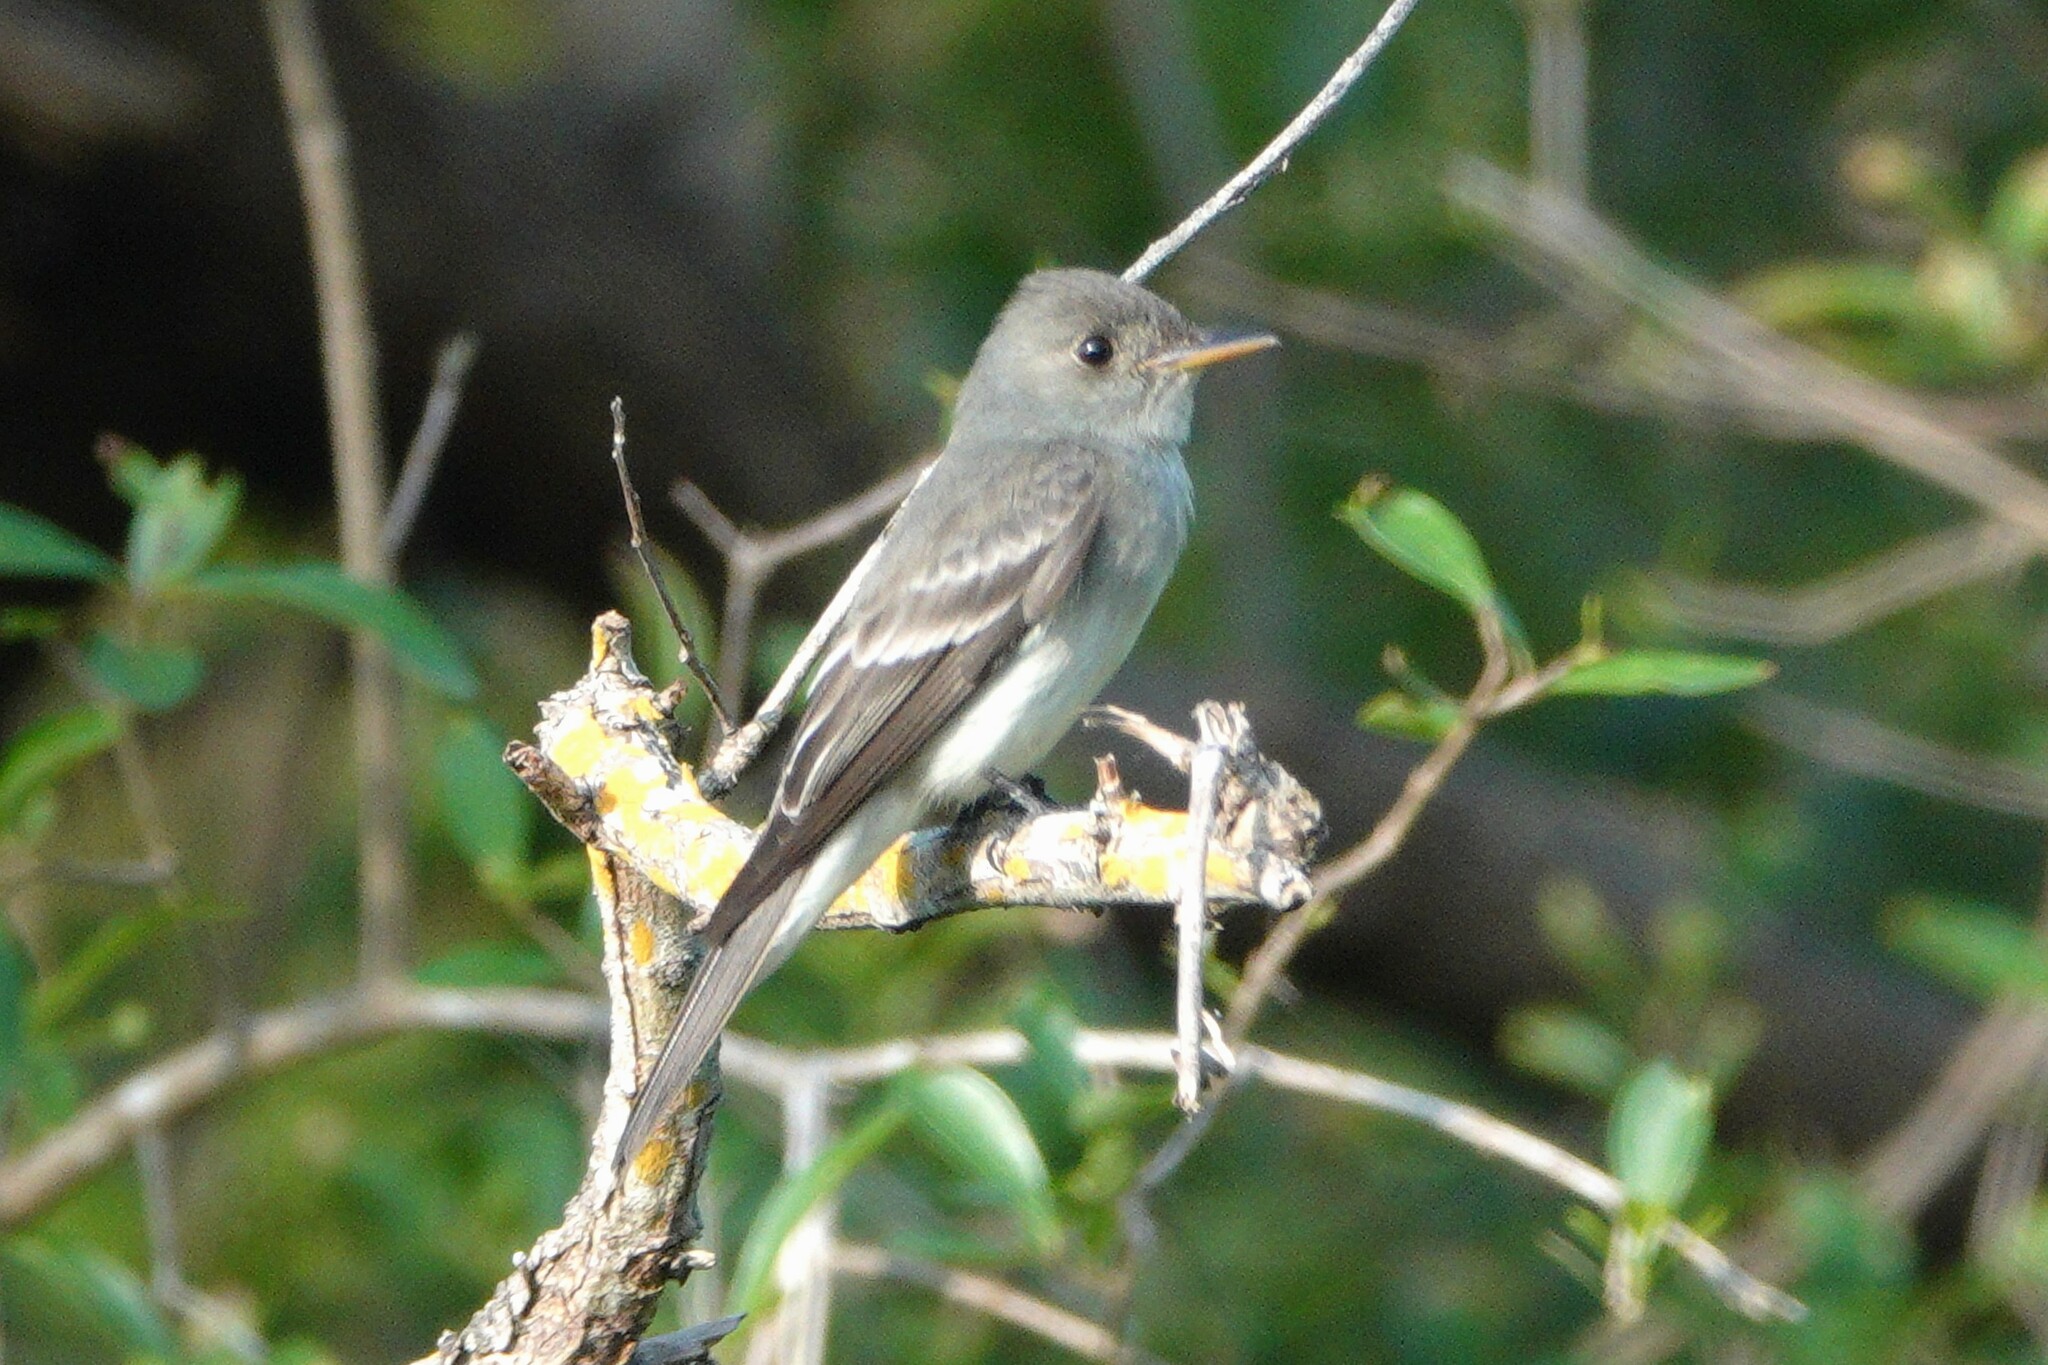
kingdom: Animalia
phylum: Chordata
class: Aves
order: Passeriformes
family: Tyrannidae
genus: Contopus
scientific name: Contopus virens
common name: Eastern wood-pewee
